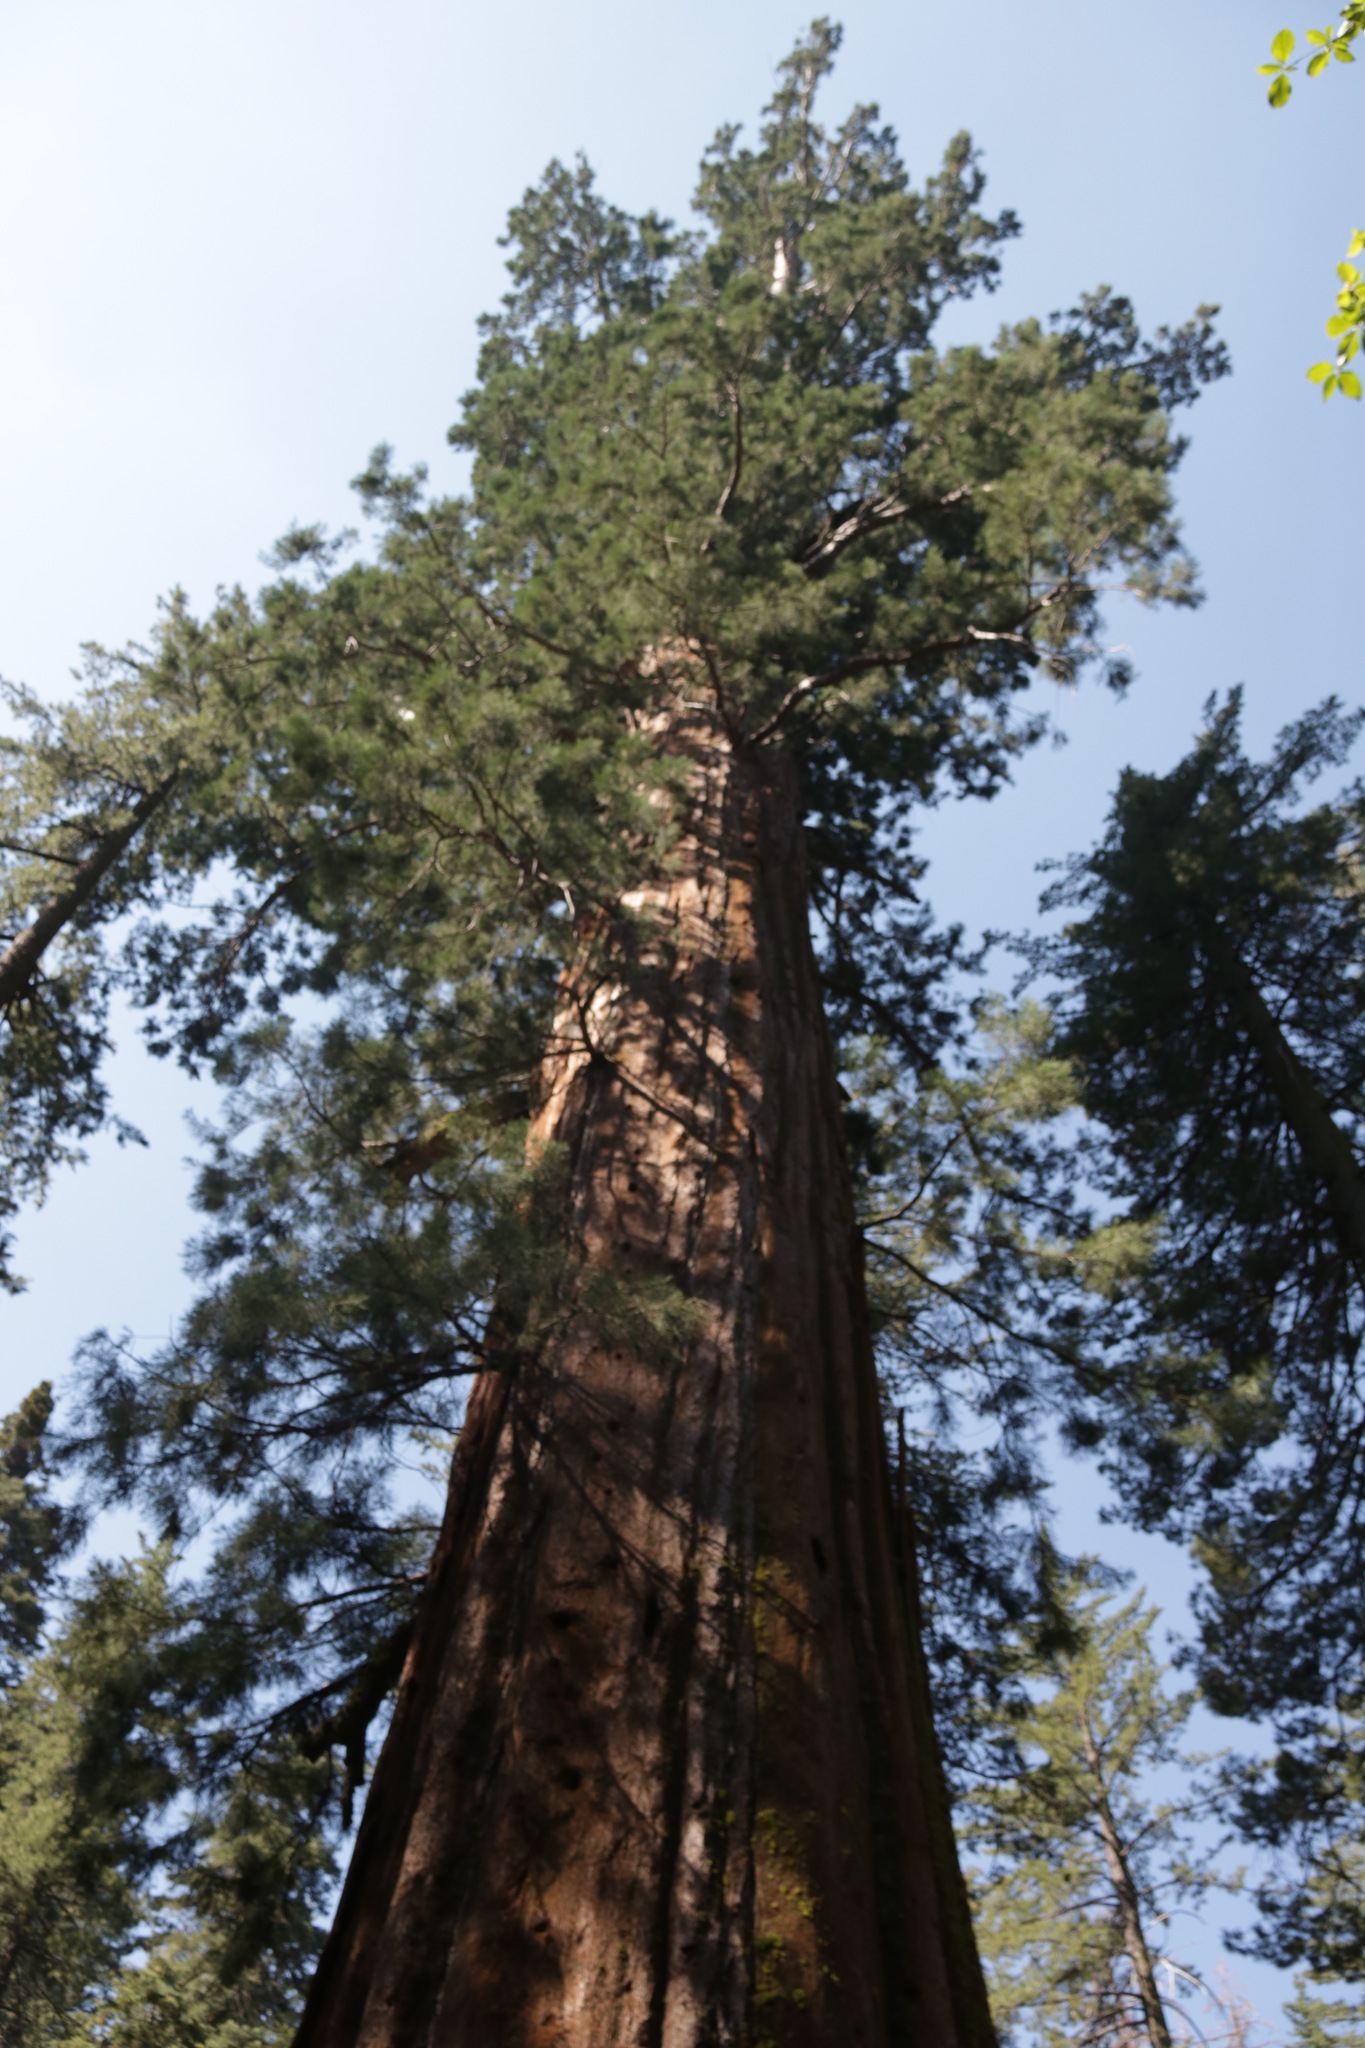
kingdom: Plantae
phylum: Tracheophyta
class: Pinopsida
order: Pinales
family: Cupressaceae
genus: Sequoiadendron
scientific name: Sequoiadendron giganteum
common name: Wellingtonia
